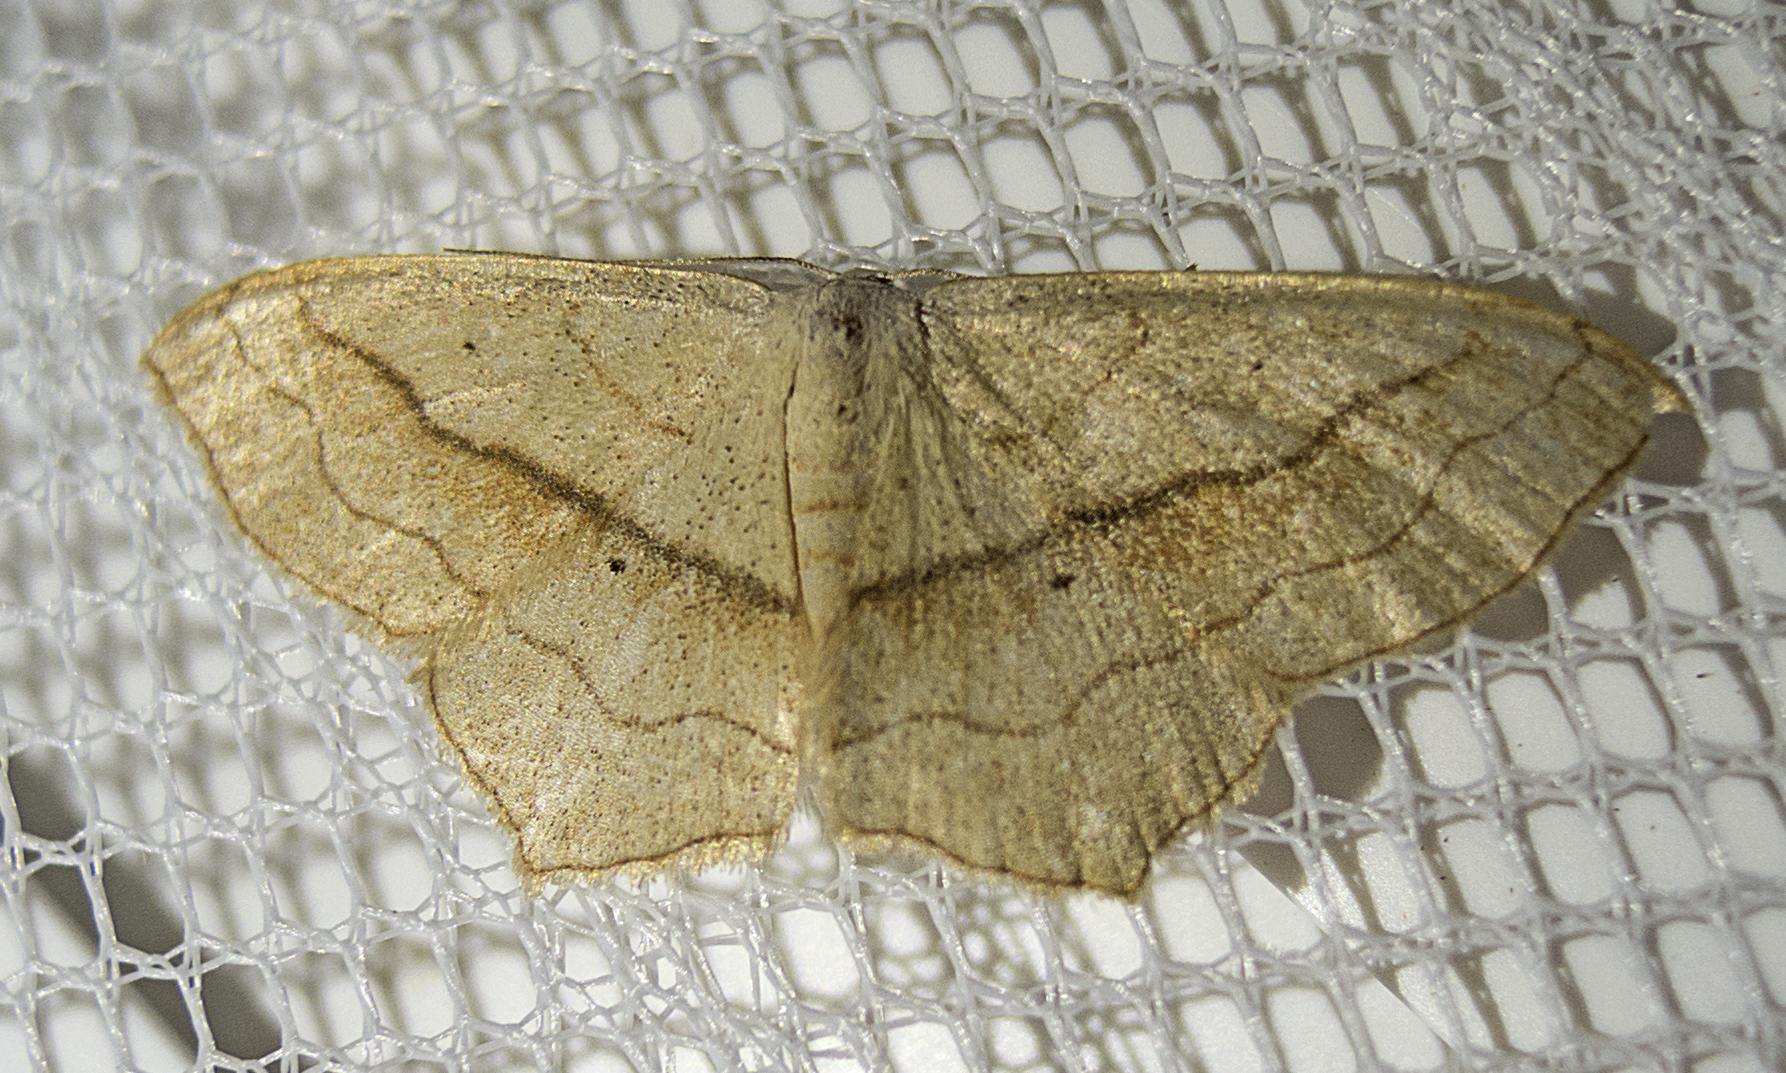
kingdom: Animalia
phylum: Arthropoda
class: Insecta
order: Lepidoptera
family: Geometridae
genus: Scopula
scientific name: Scopula imitaria
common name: Small blood-vein
